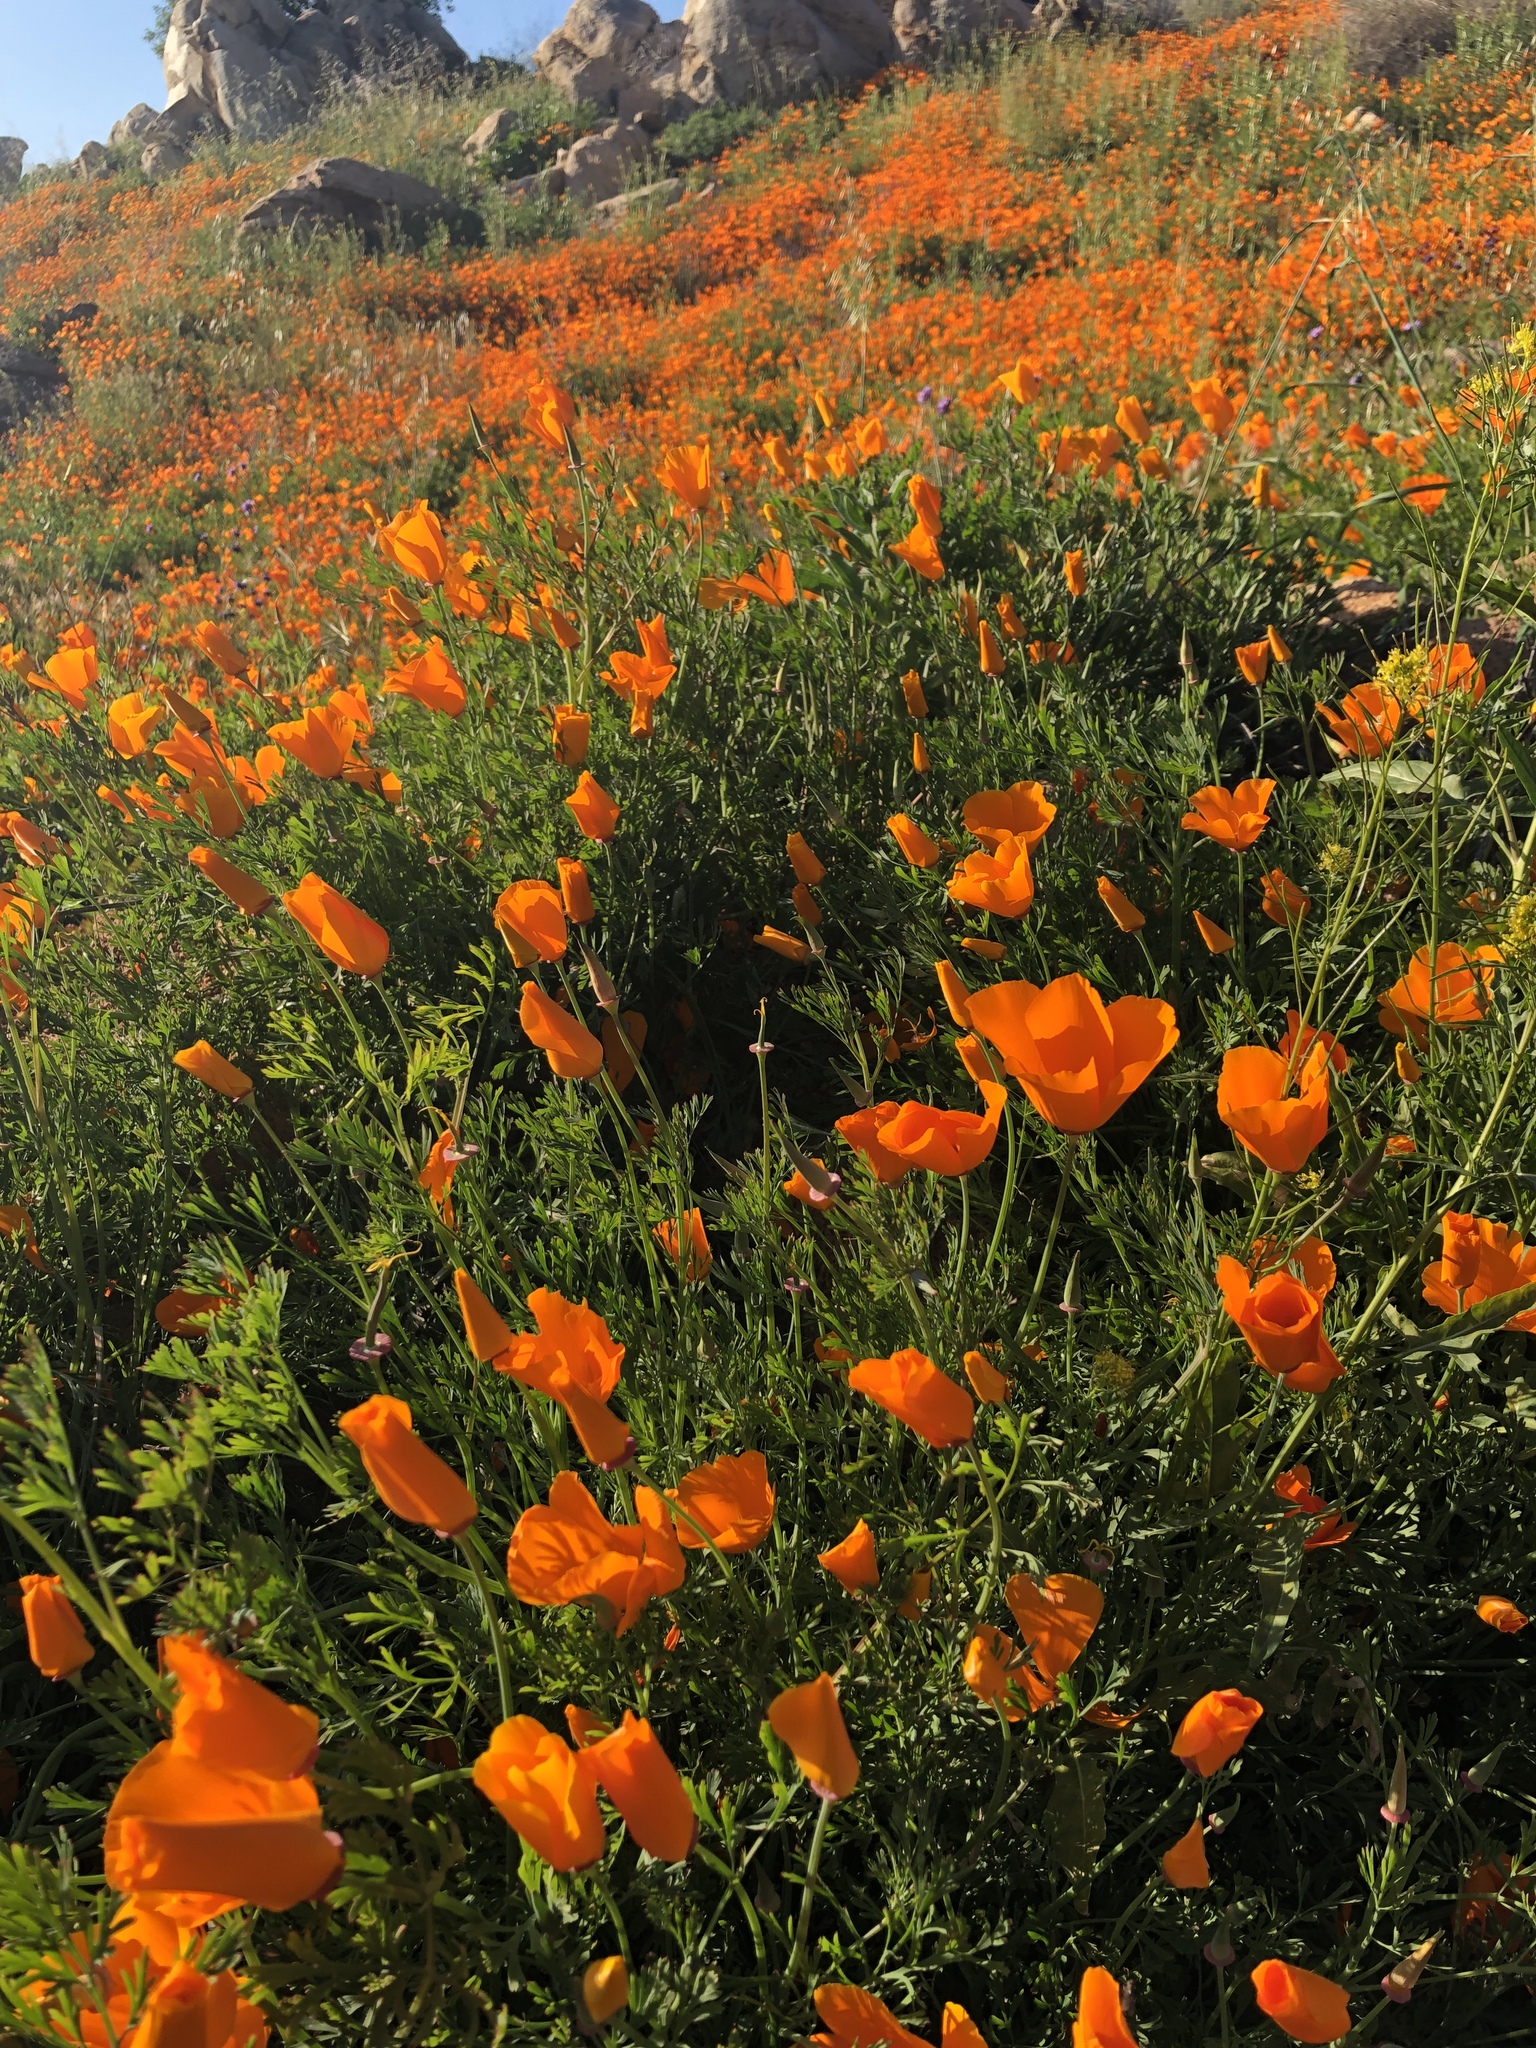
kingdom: Plantae
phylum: Tracheophyta
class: Magnoliopsida
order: Ranunculales
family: Papaveraceae
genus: Eschscholzia
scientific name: Eschscholzia californica
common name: California poppy
